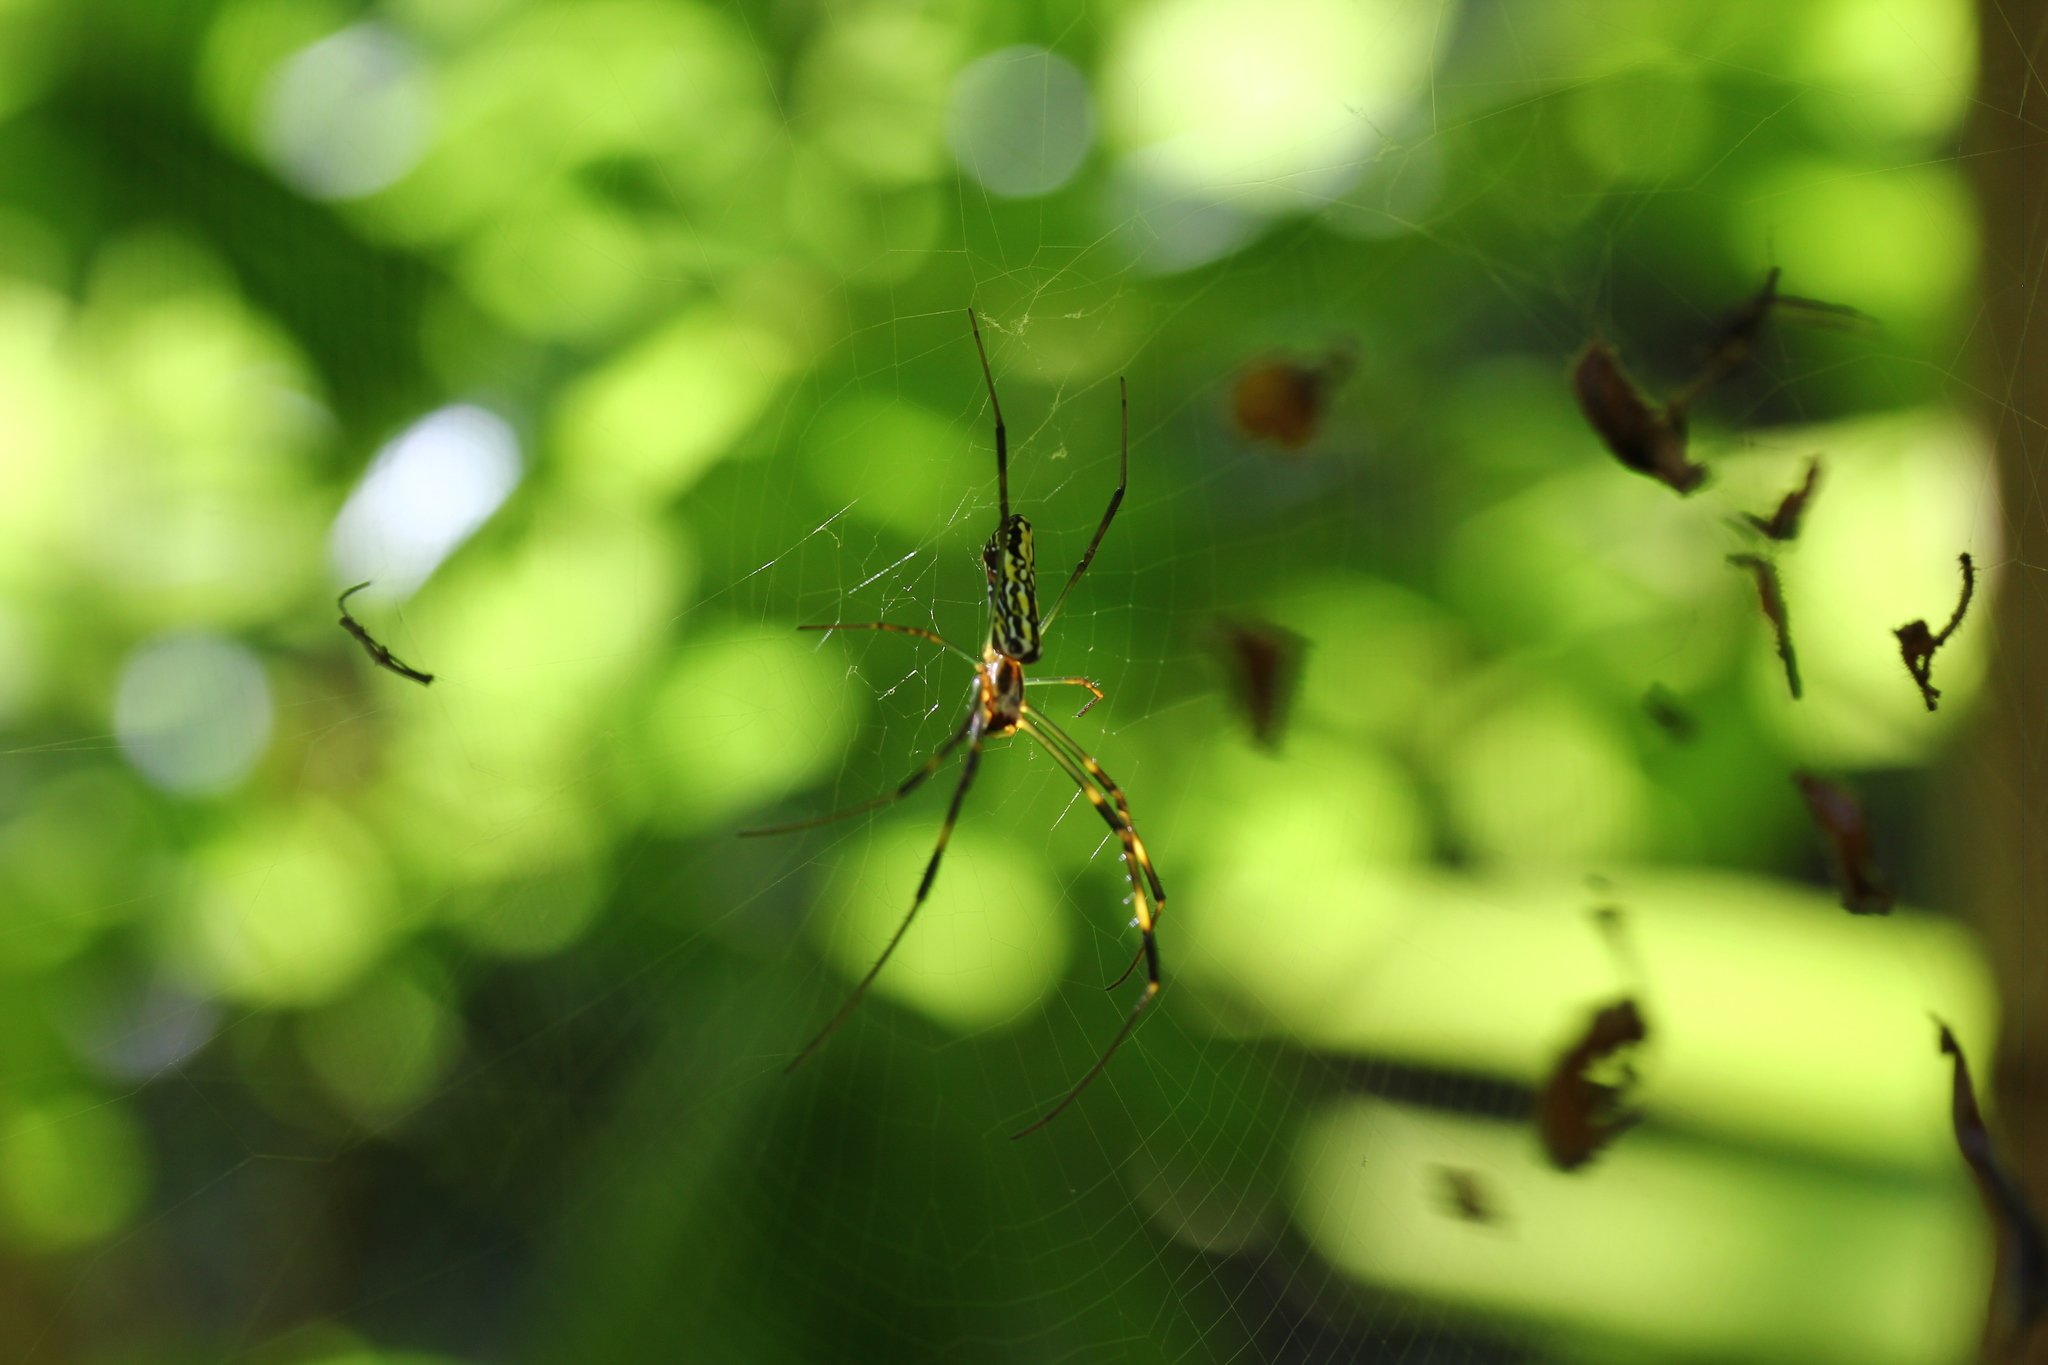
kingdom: Animalia
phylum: Arthropoda
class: Arachnida
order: Araneae
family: Araneidae
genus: Trichonephila
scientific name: Trichonephila clavata
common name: Jorō spider
